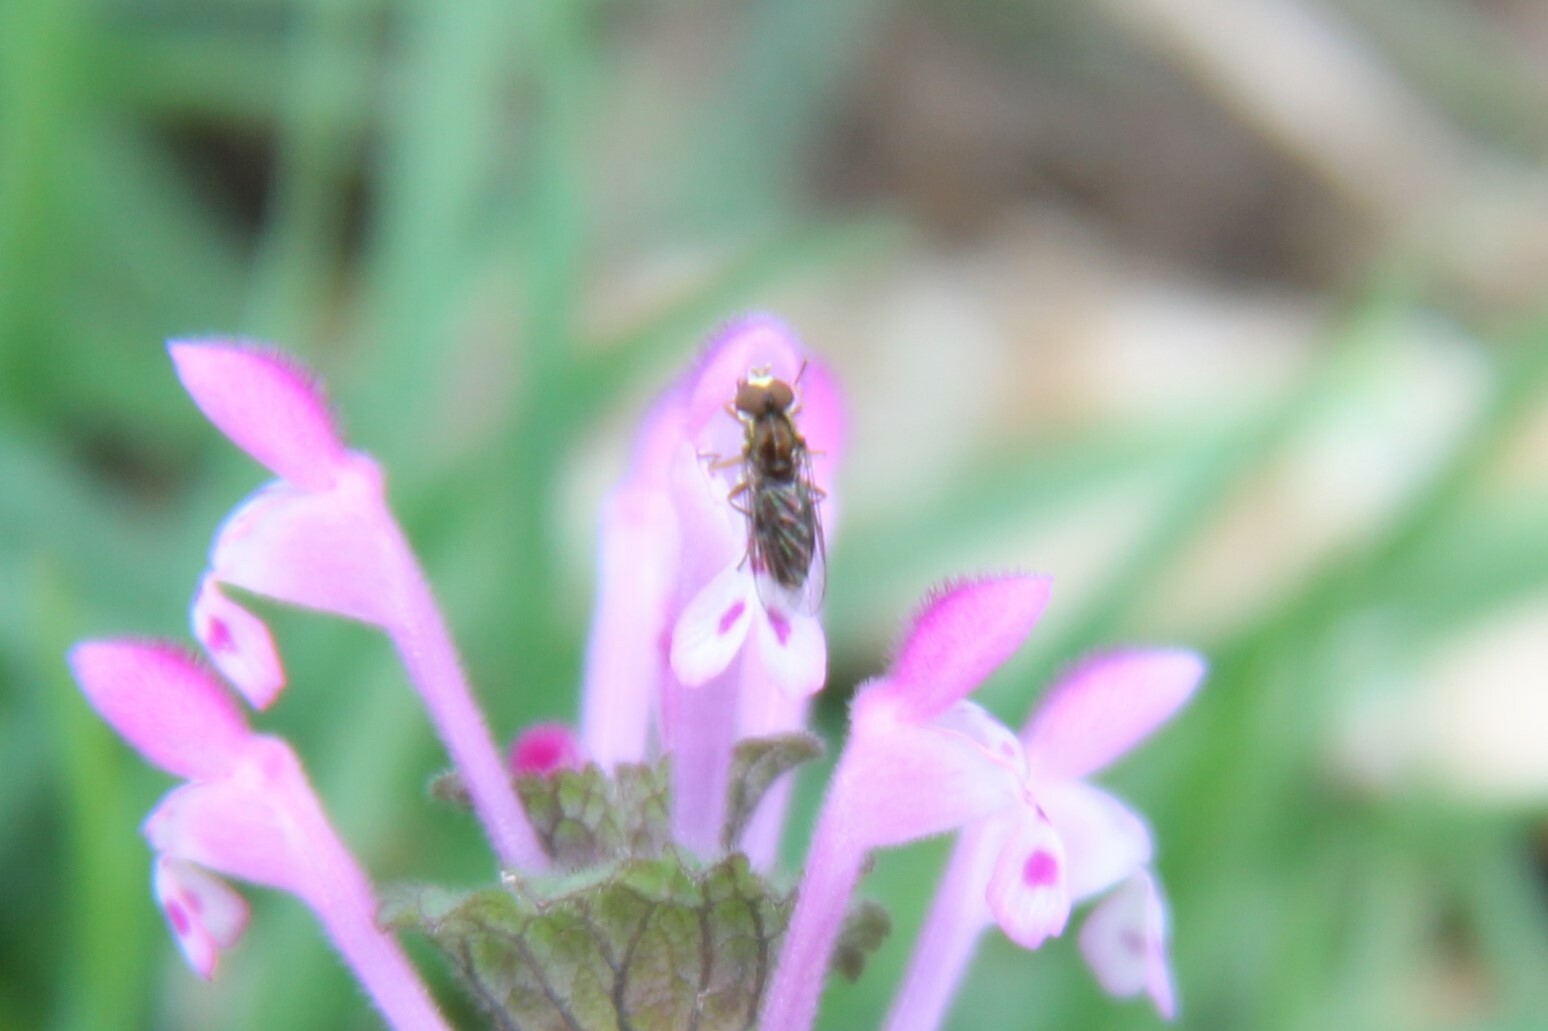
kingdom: Animalia
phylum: Arthropoda
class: Insecta
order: Diptera
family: Syrphidae
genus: Toxomerus
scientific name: Toxomerus marginatus
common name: Syrphid fly
